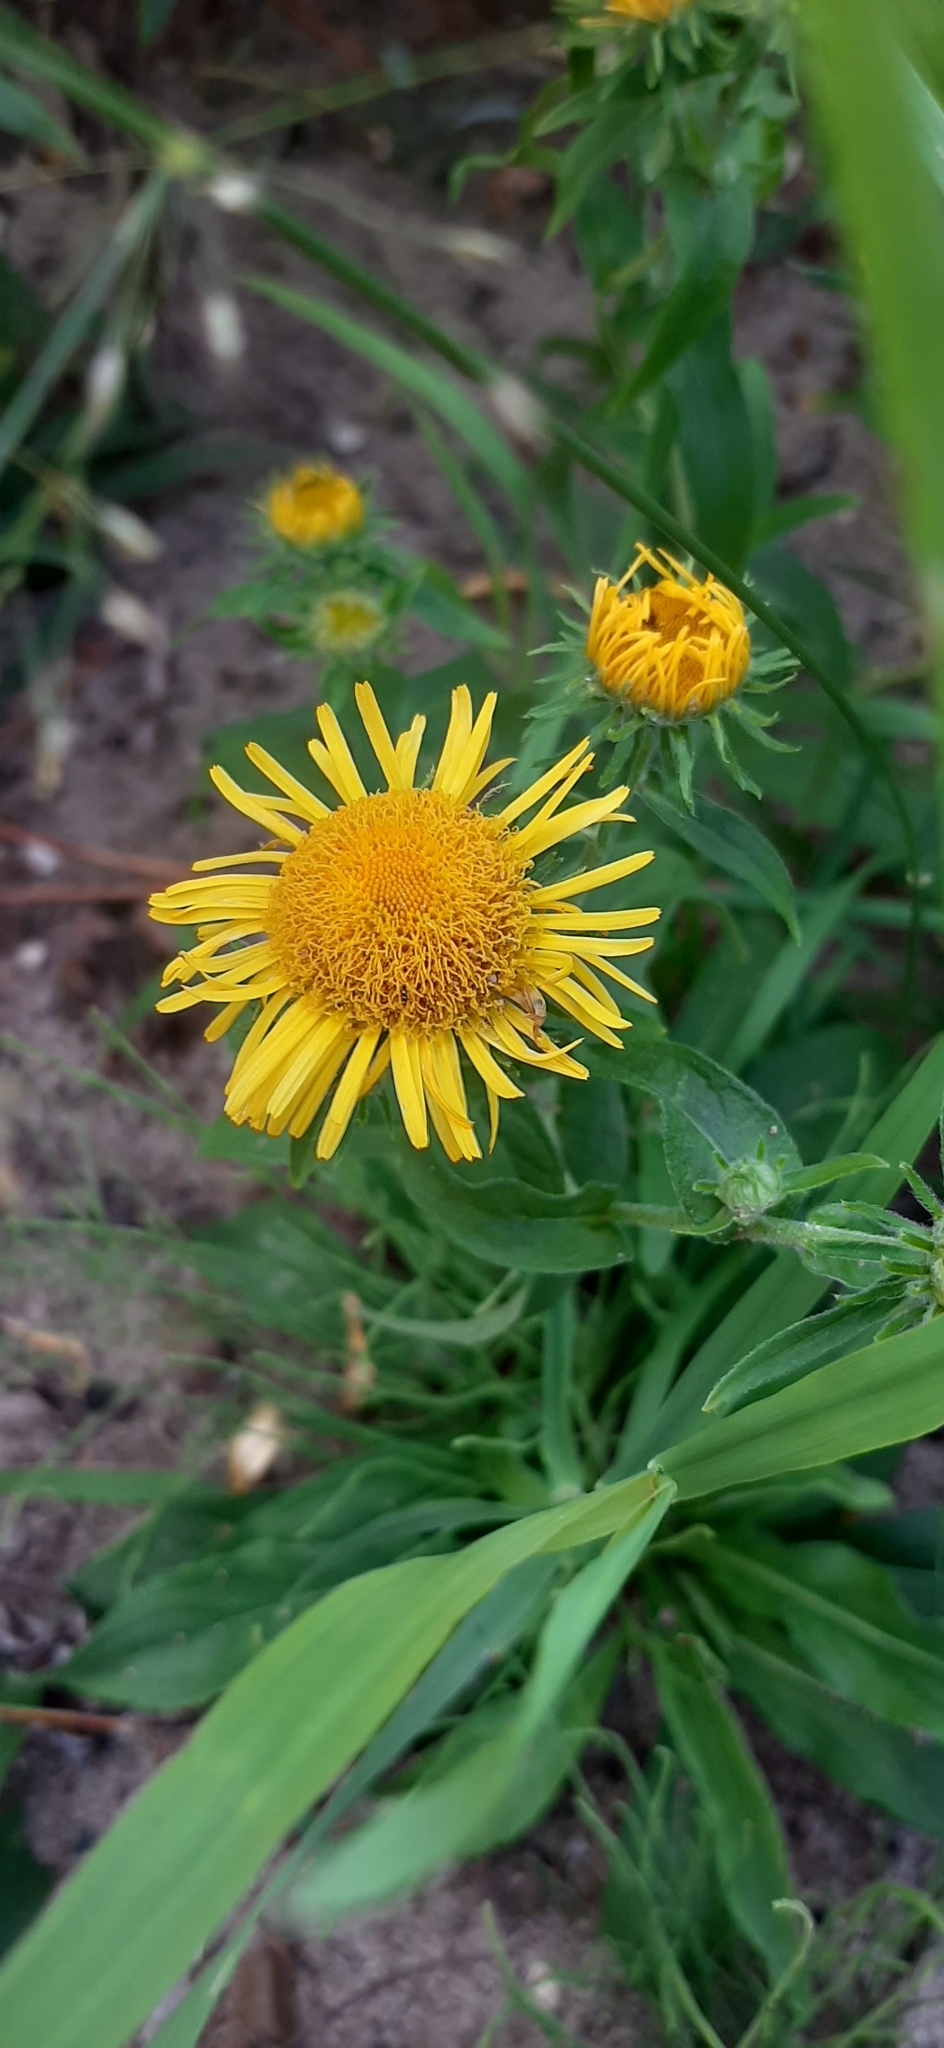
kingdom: Plantae
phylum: Tracheophyta
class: Magnoliopsida
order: Asterales
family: Asteraceae
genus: Pentanema
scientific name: Pentanema britannicum
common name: British elecampane
